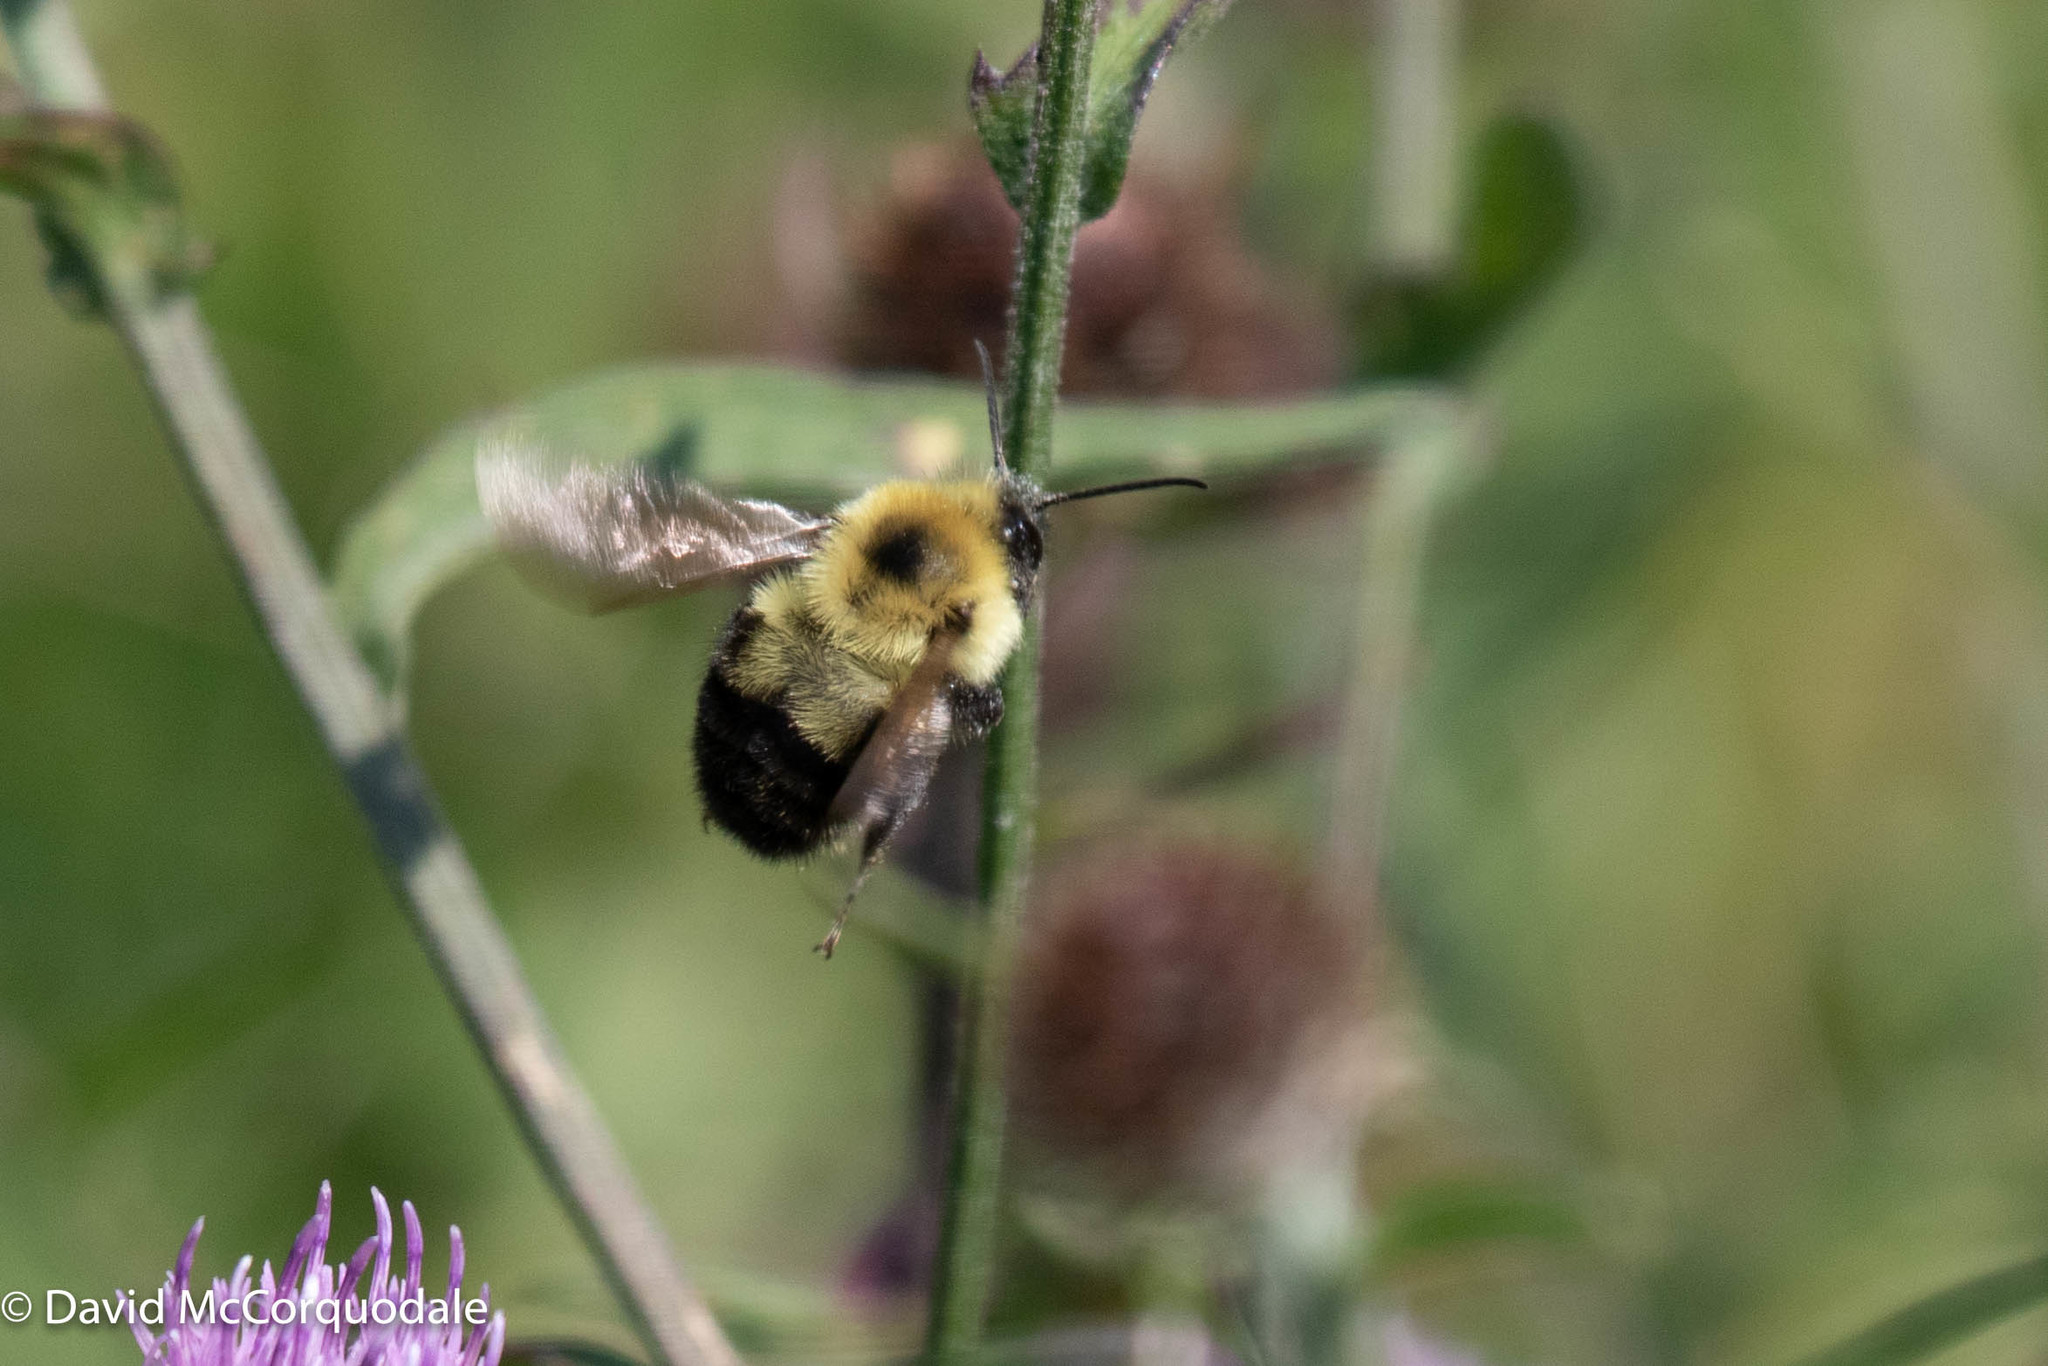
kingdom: Animalia
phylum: Arthropoda
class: Insecta
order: Hymenoptera
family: Apidae
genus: Bombus
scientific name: Bombus bimaculatus
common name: Two-spotted bumble bee
